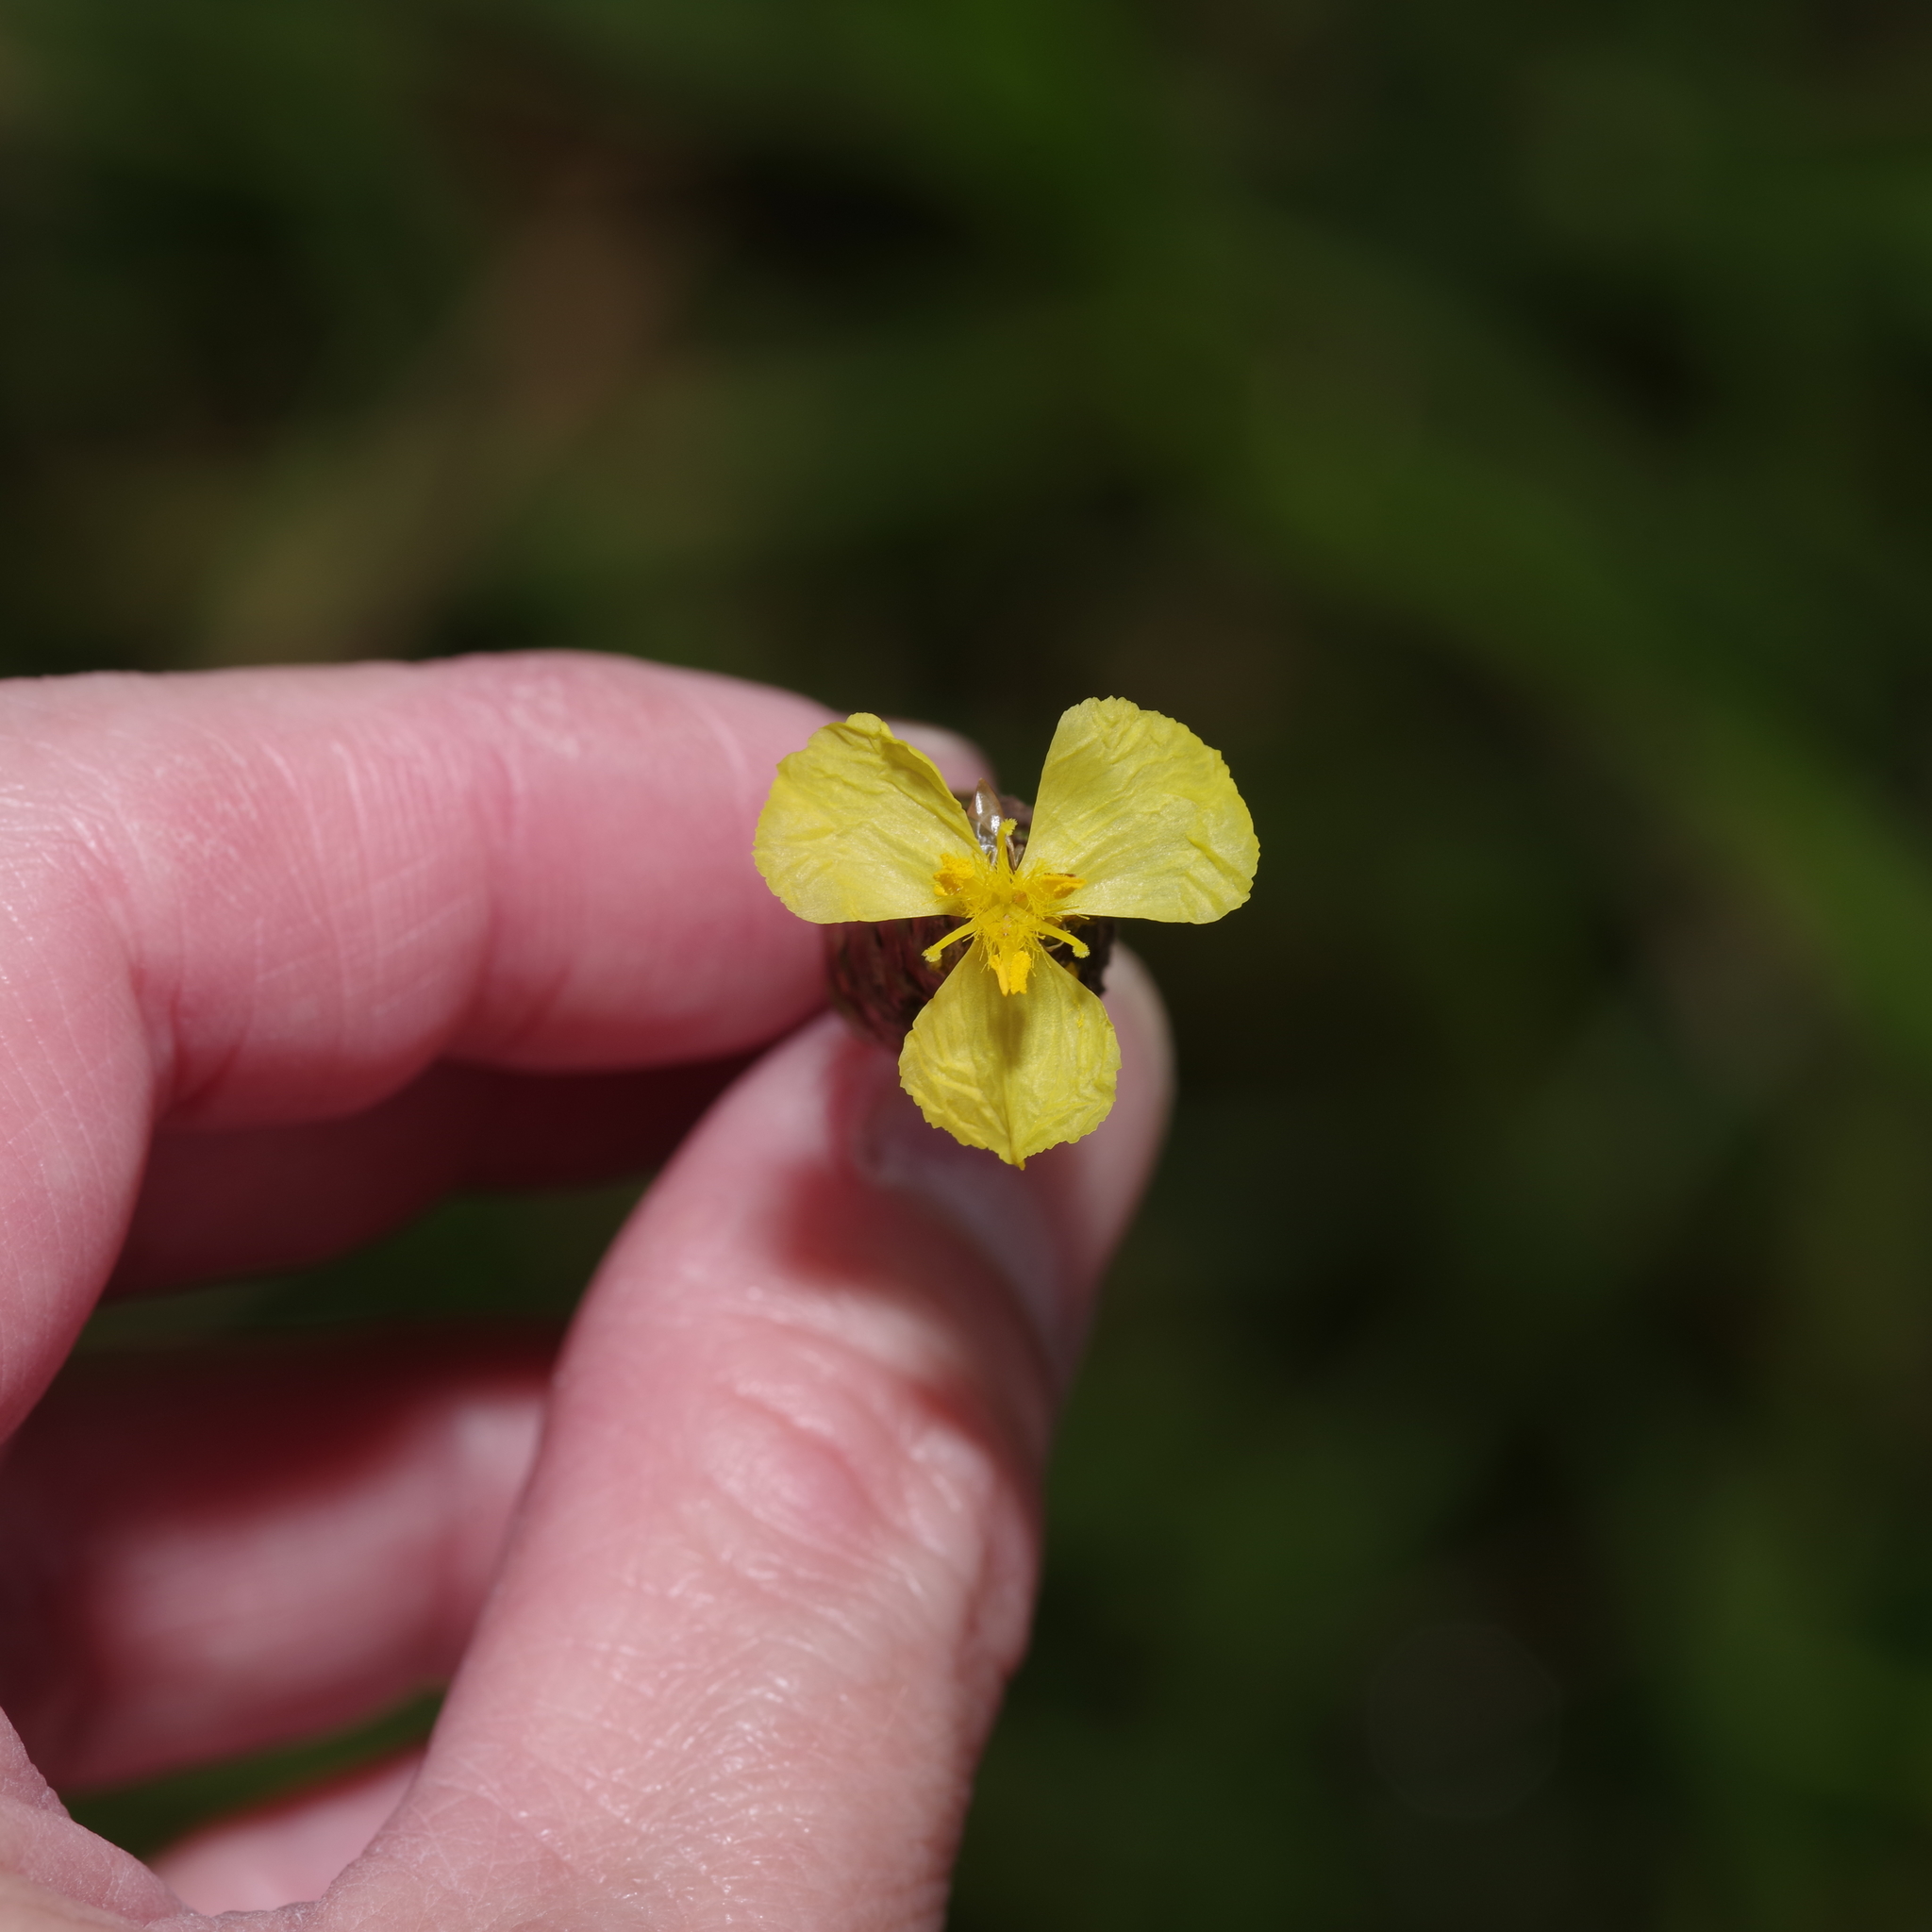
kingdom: Plantae
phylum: Tracheophyta
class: Liliopsida
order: Poales
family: Xyridaceae
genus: Xyris
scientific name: Xyris ambigua
